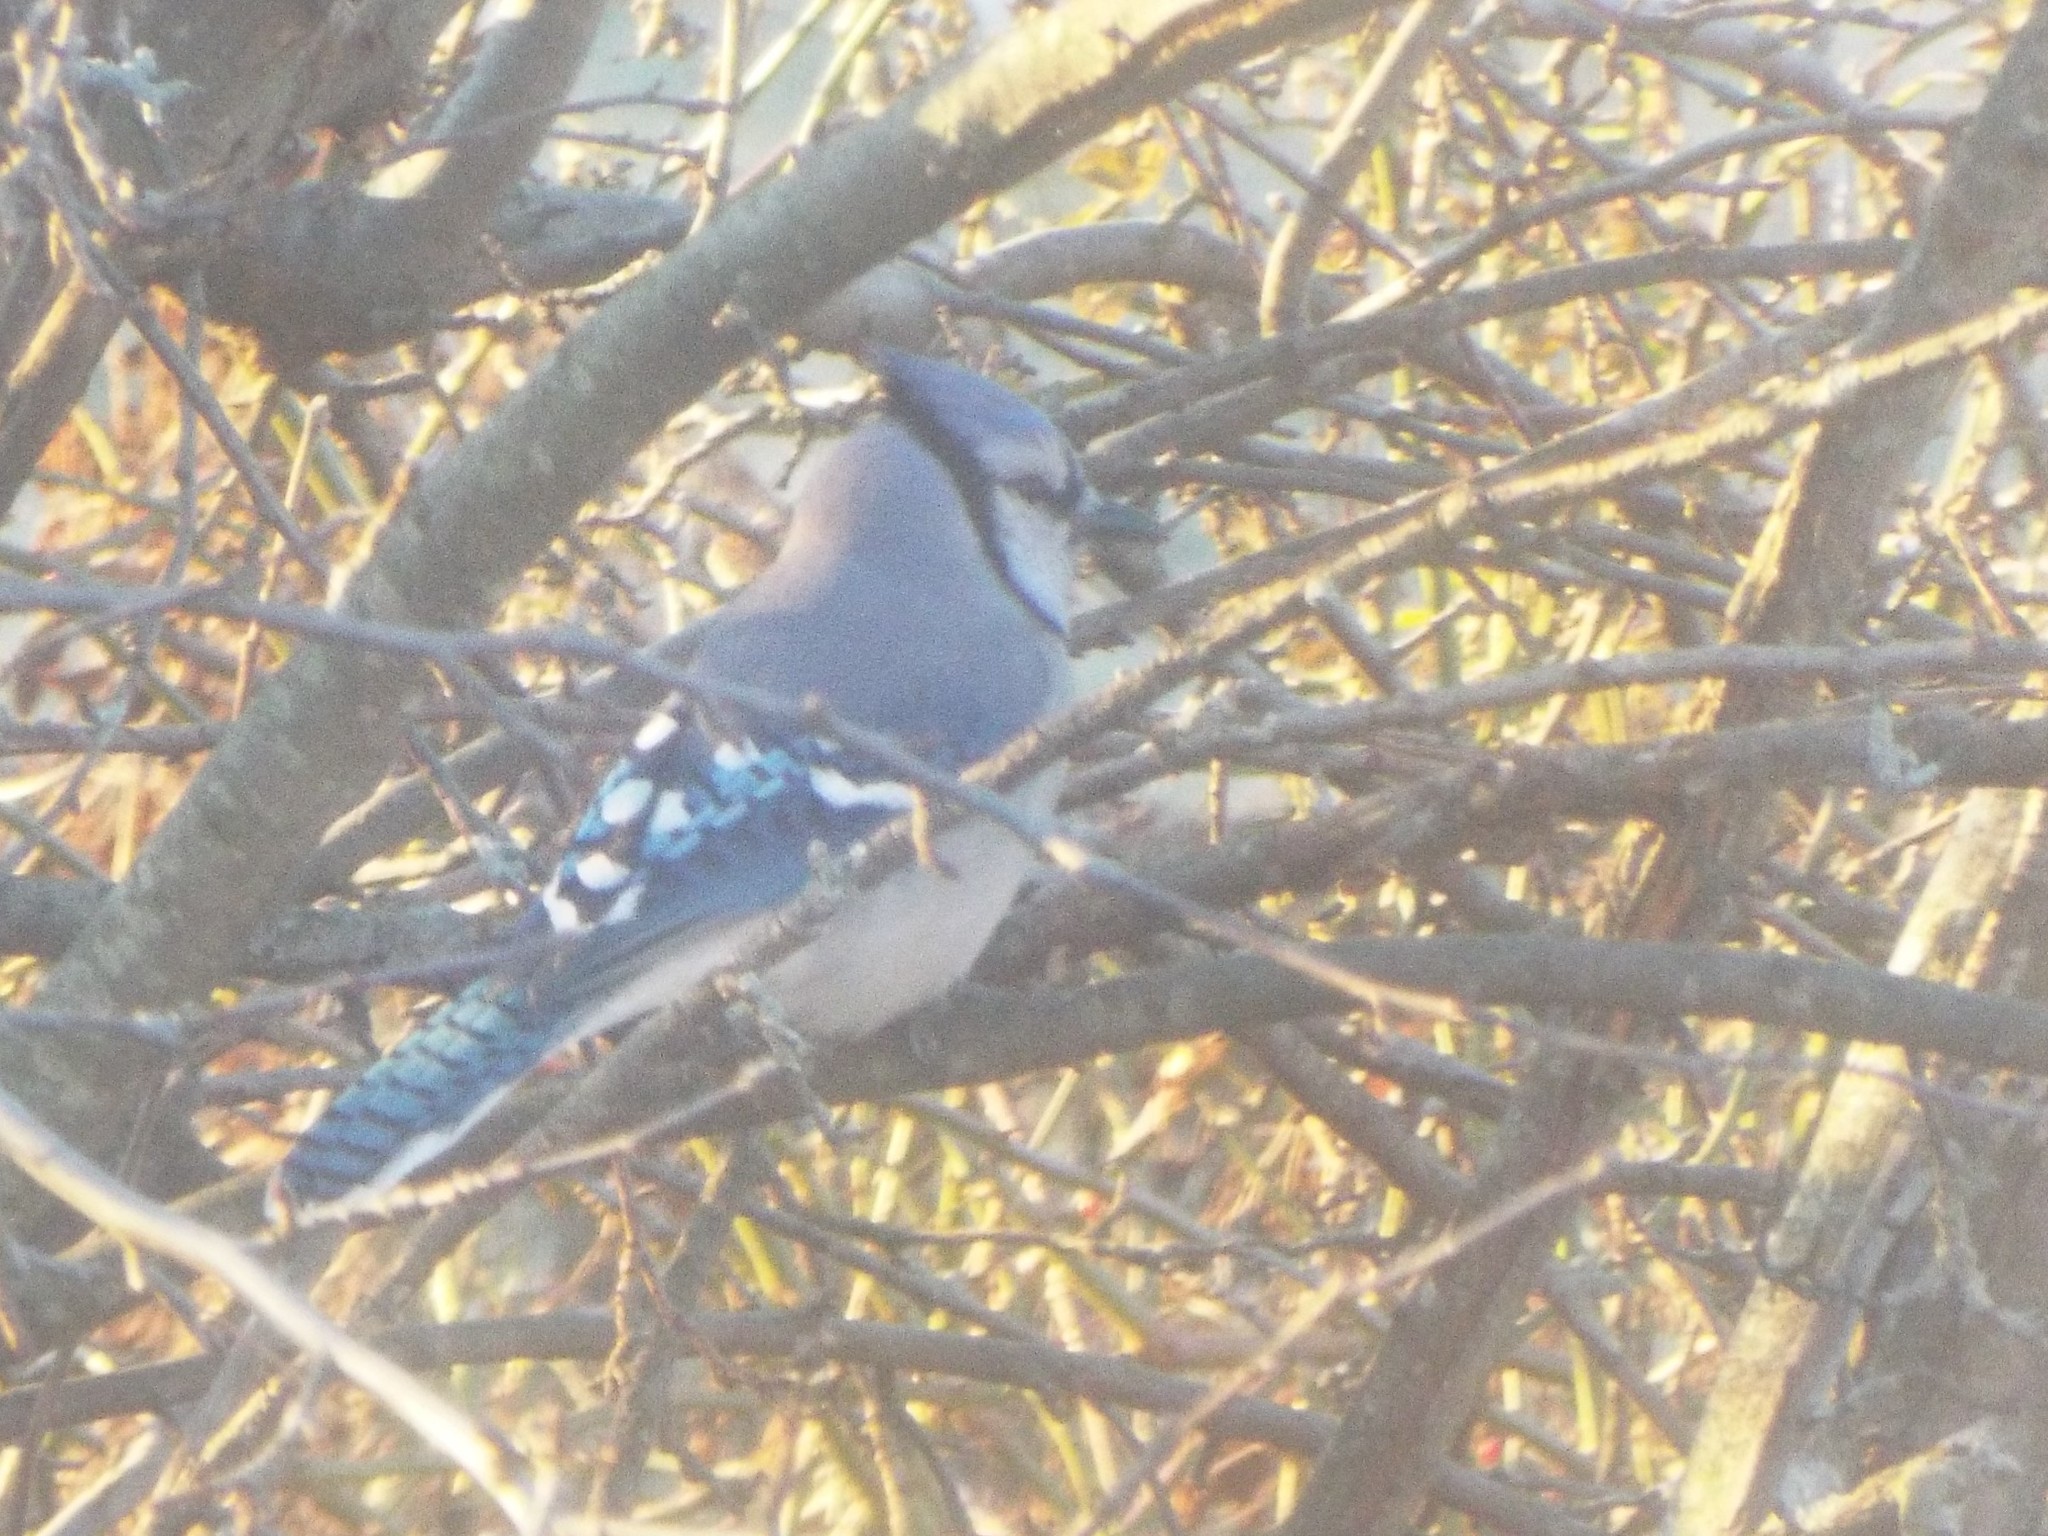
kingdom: Animalia
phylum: Chordata
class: Aves
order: Passeriformes
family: Corvidae
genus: Cyanocitta
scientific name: Cyanocitta cristata
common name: Blue jay
